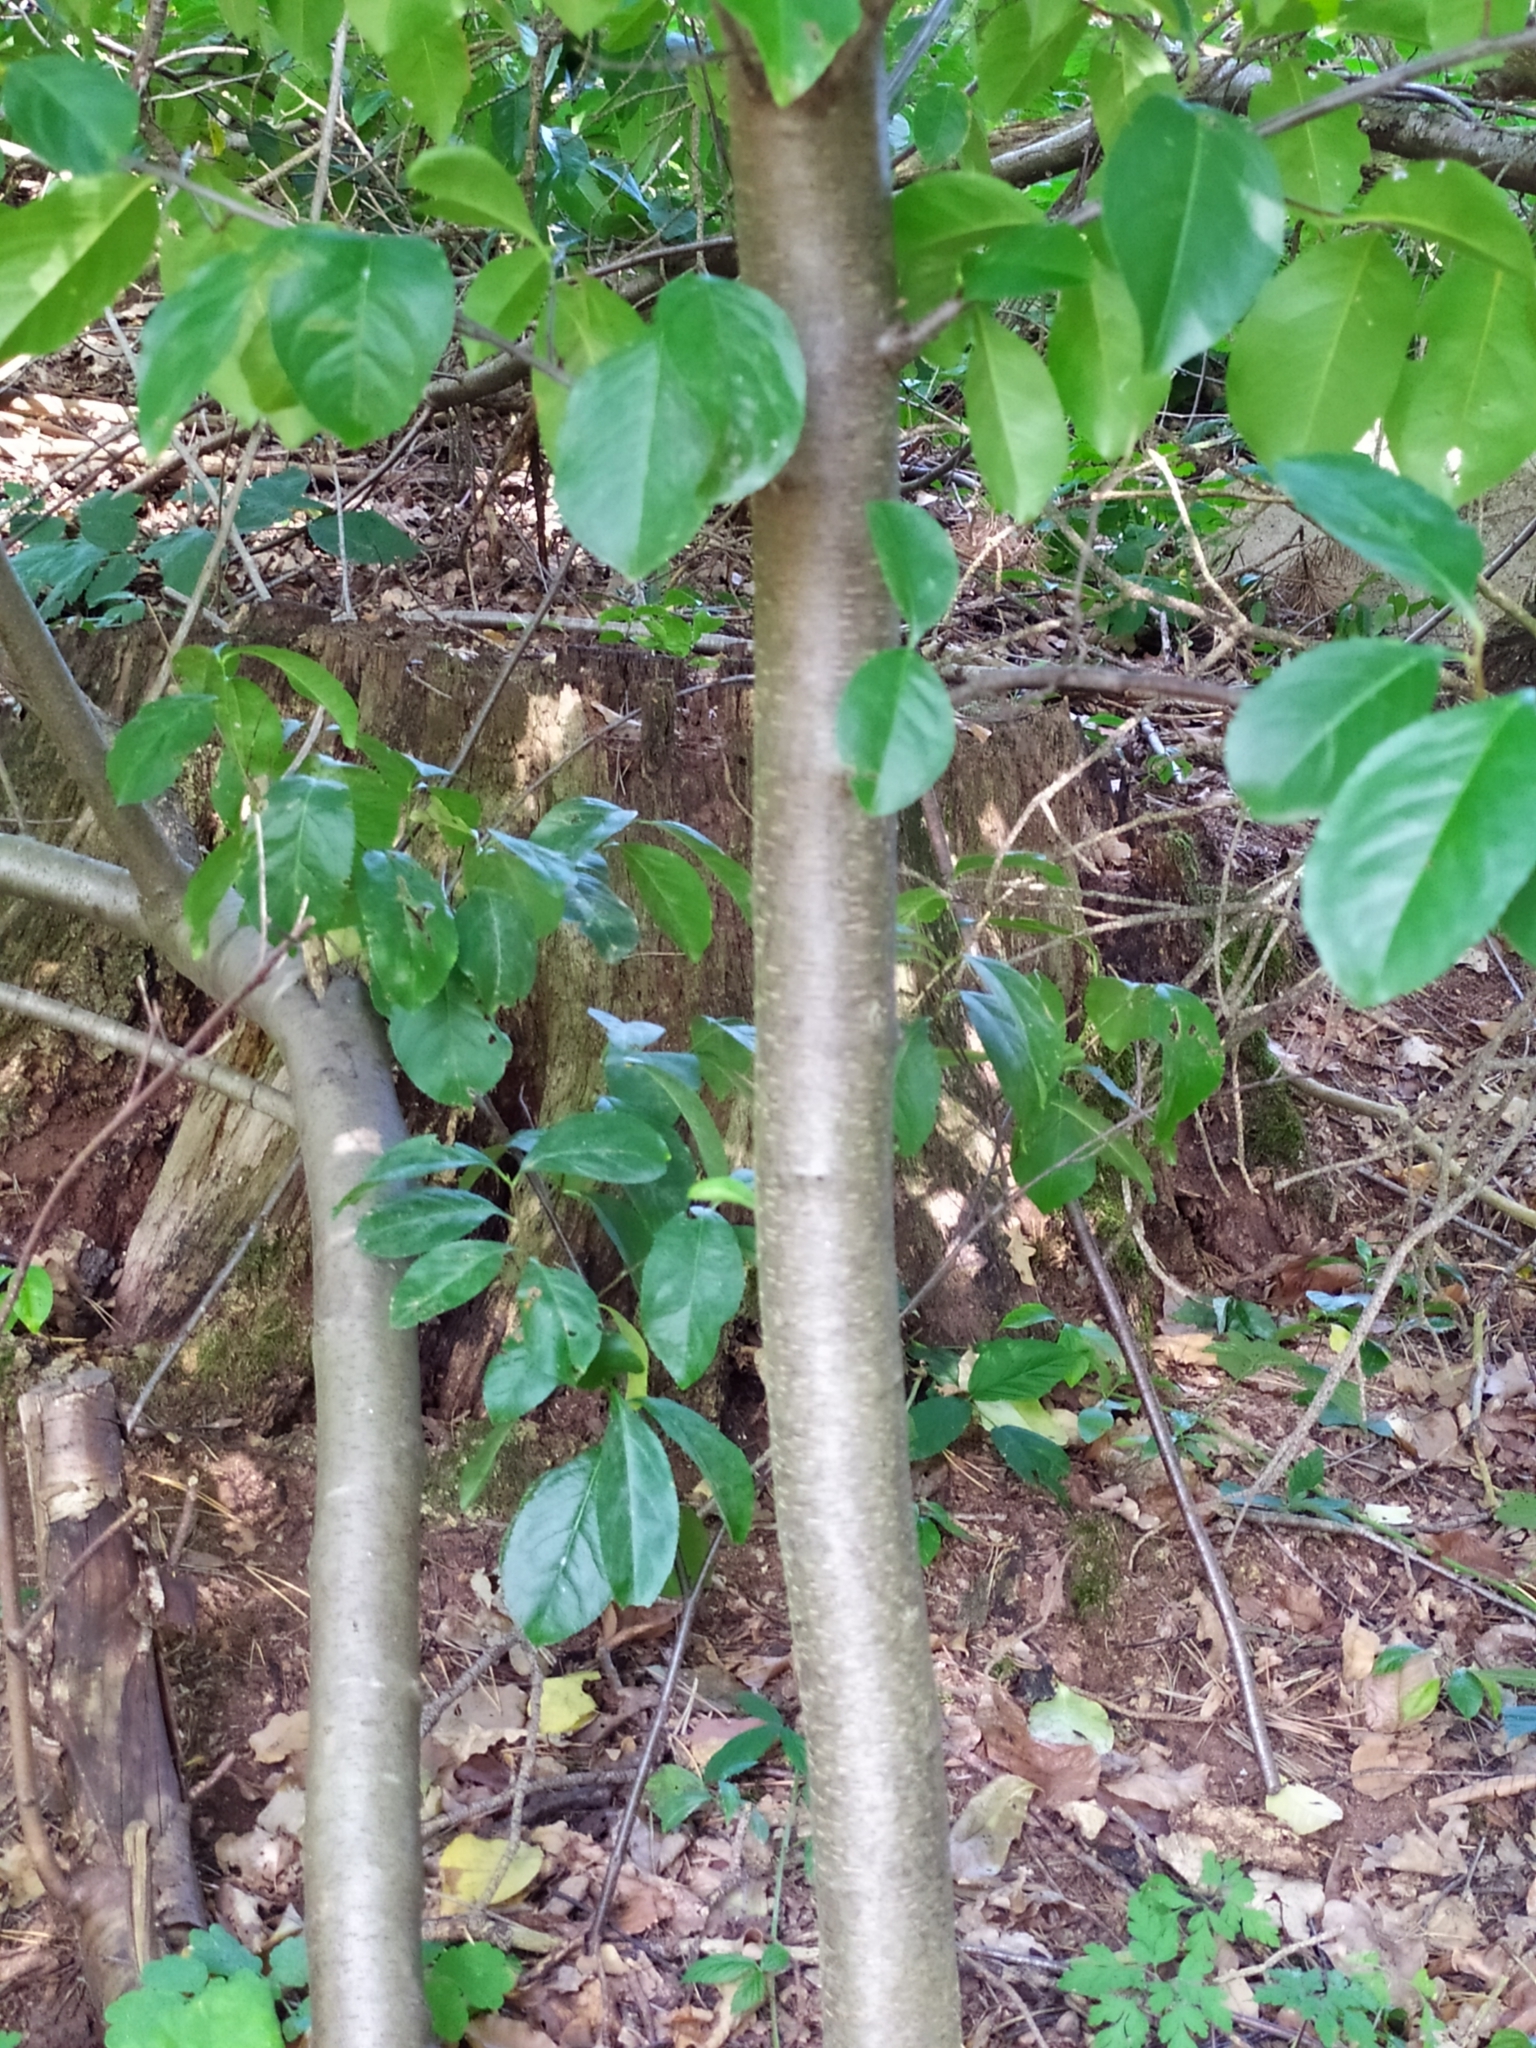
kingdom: Plantae
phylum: Tracheophyta
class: Magnoliopsida
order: Rosales
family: Rosaceae
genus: Prunus
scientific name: Prunus serotina
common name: Black cherry
